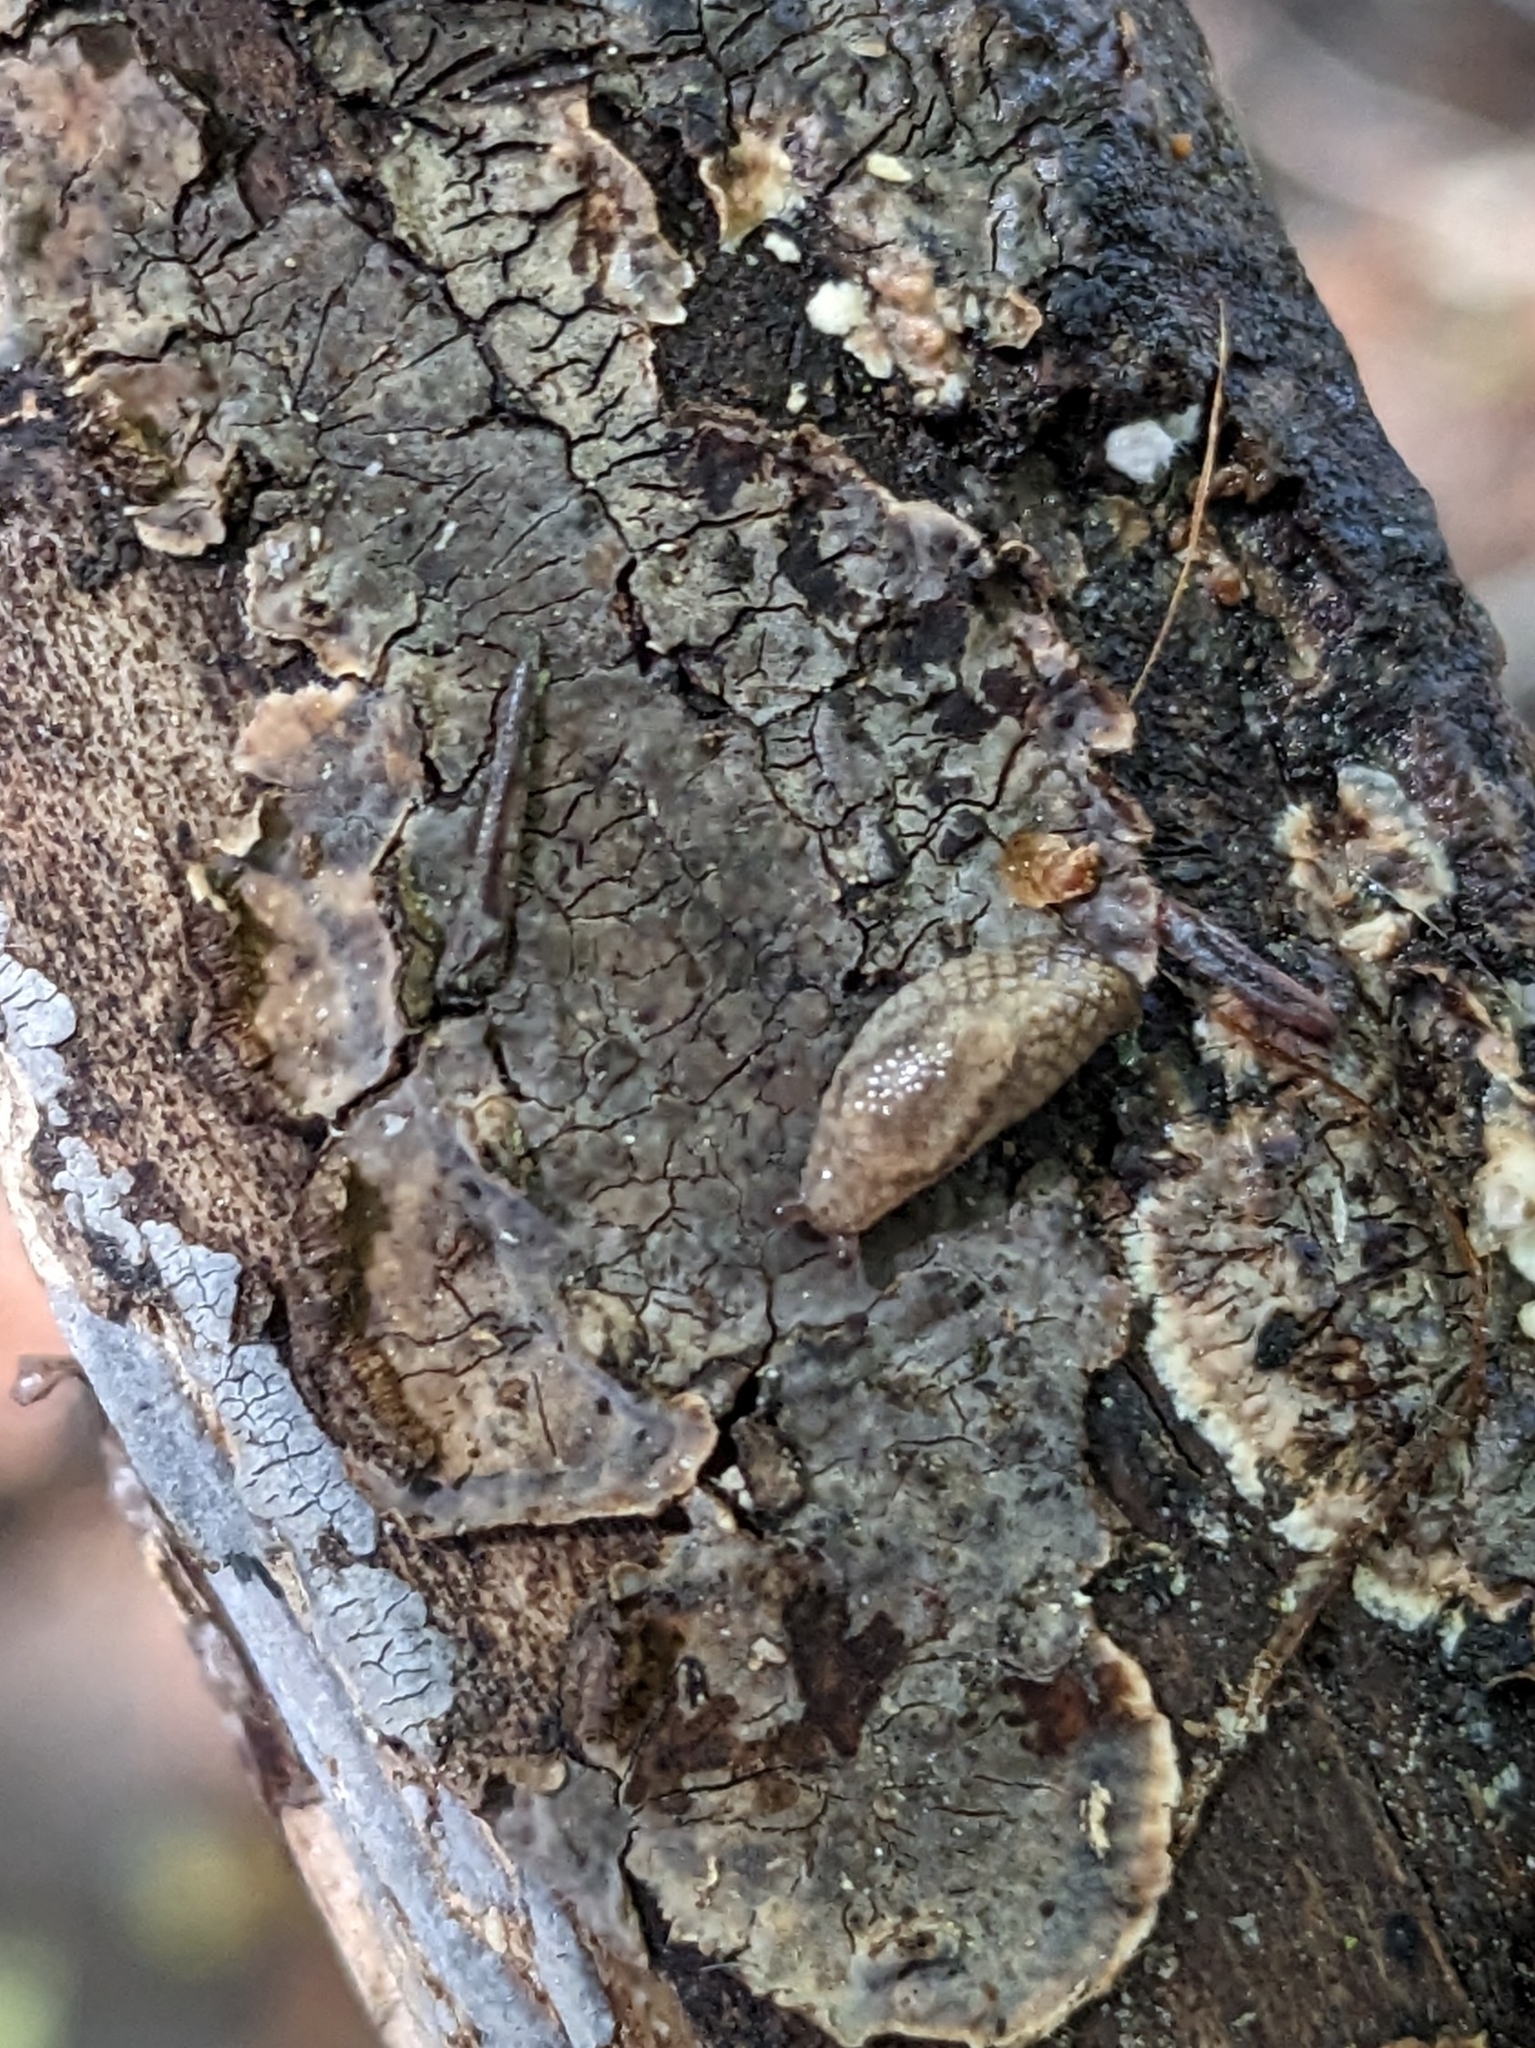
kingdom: Animalia
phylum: Mollusca
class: Gastropoda
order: Stylommatophora
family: Ariolimacidae
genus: Prophysaon
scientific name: Prophysaon andersonii
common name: Reticulate taildropper
